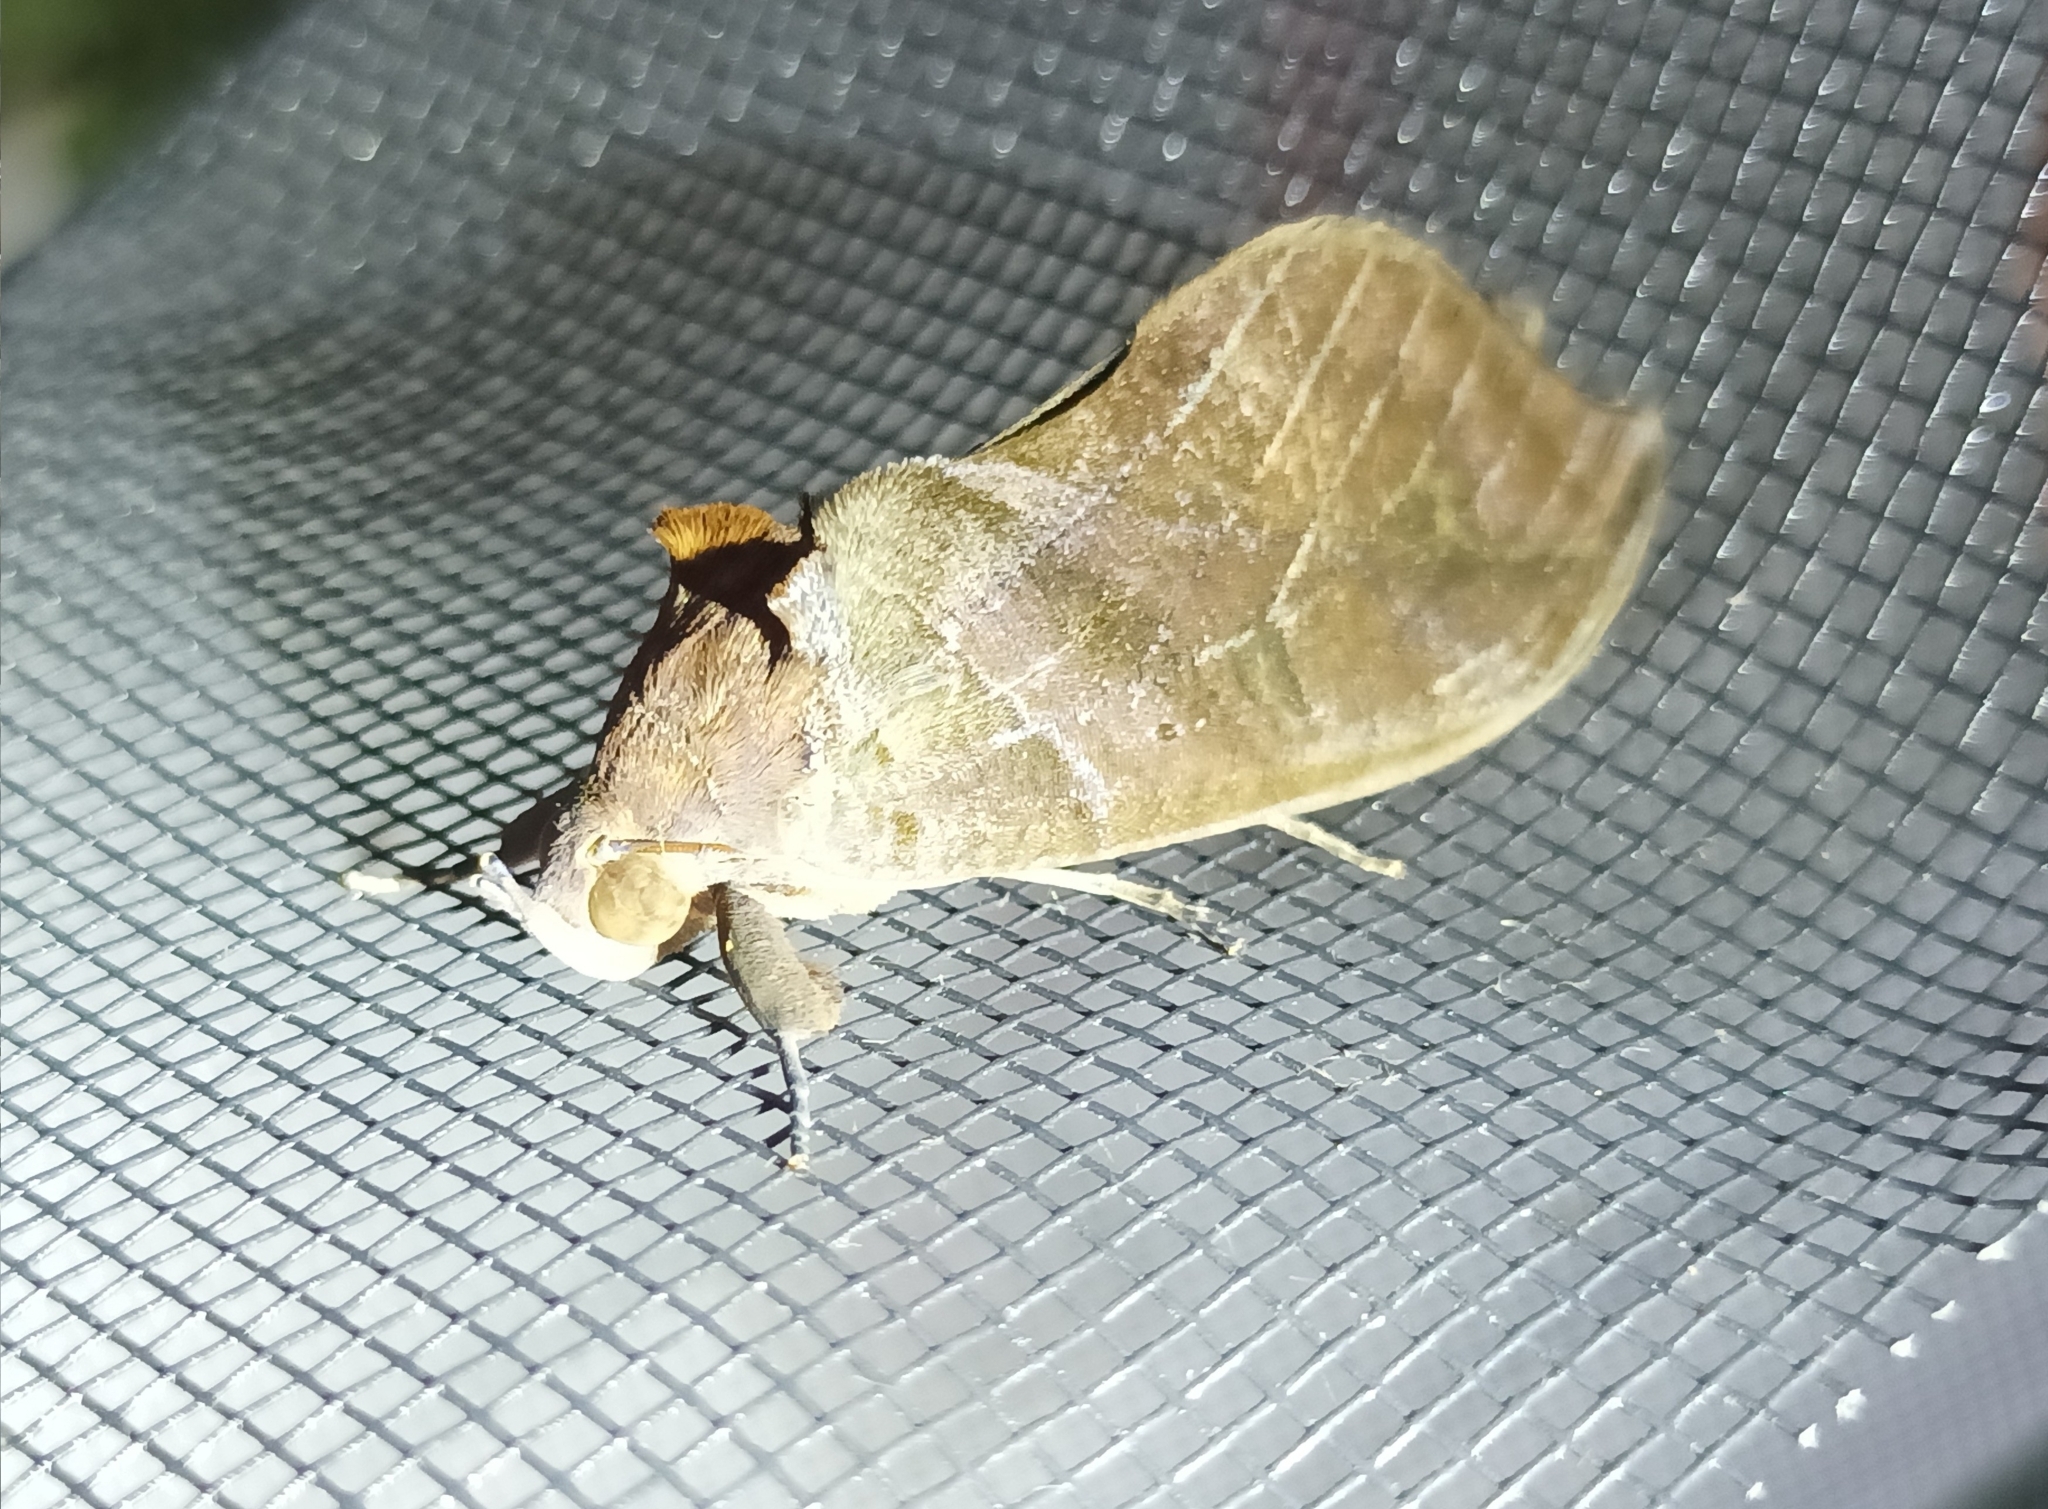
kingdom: Animalia
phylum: Arthropoda
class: Insecta
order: Lepidoptera
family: Erebidae
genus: Eudocima
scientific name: Eudocima phalonia
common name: Wasp
